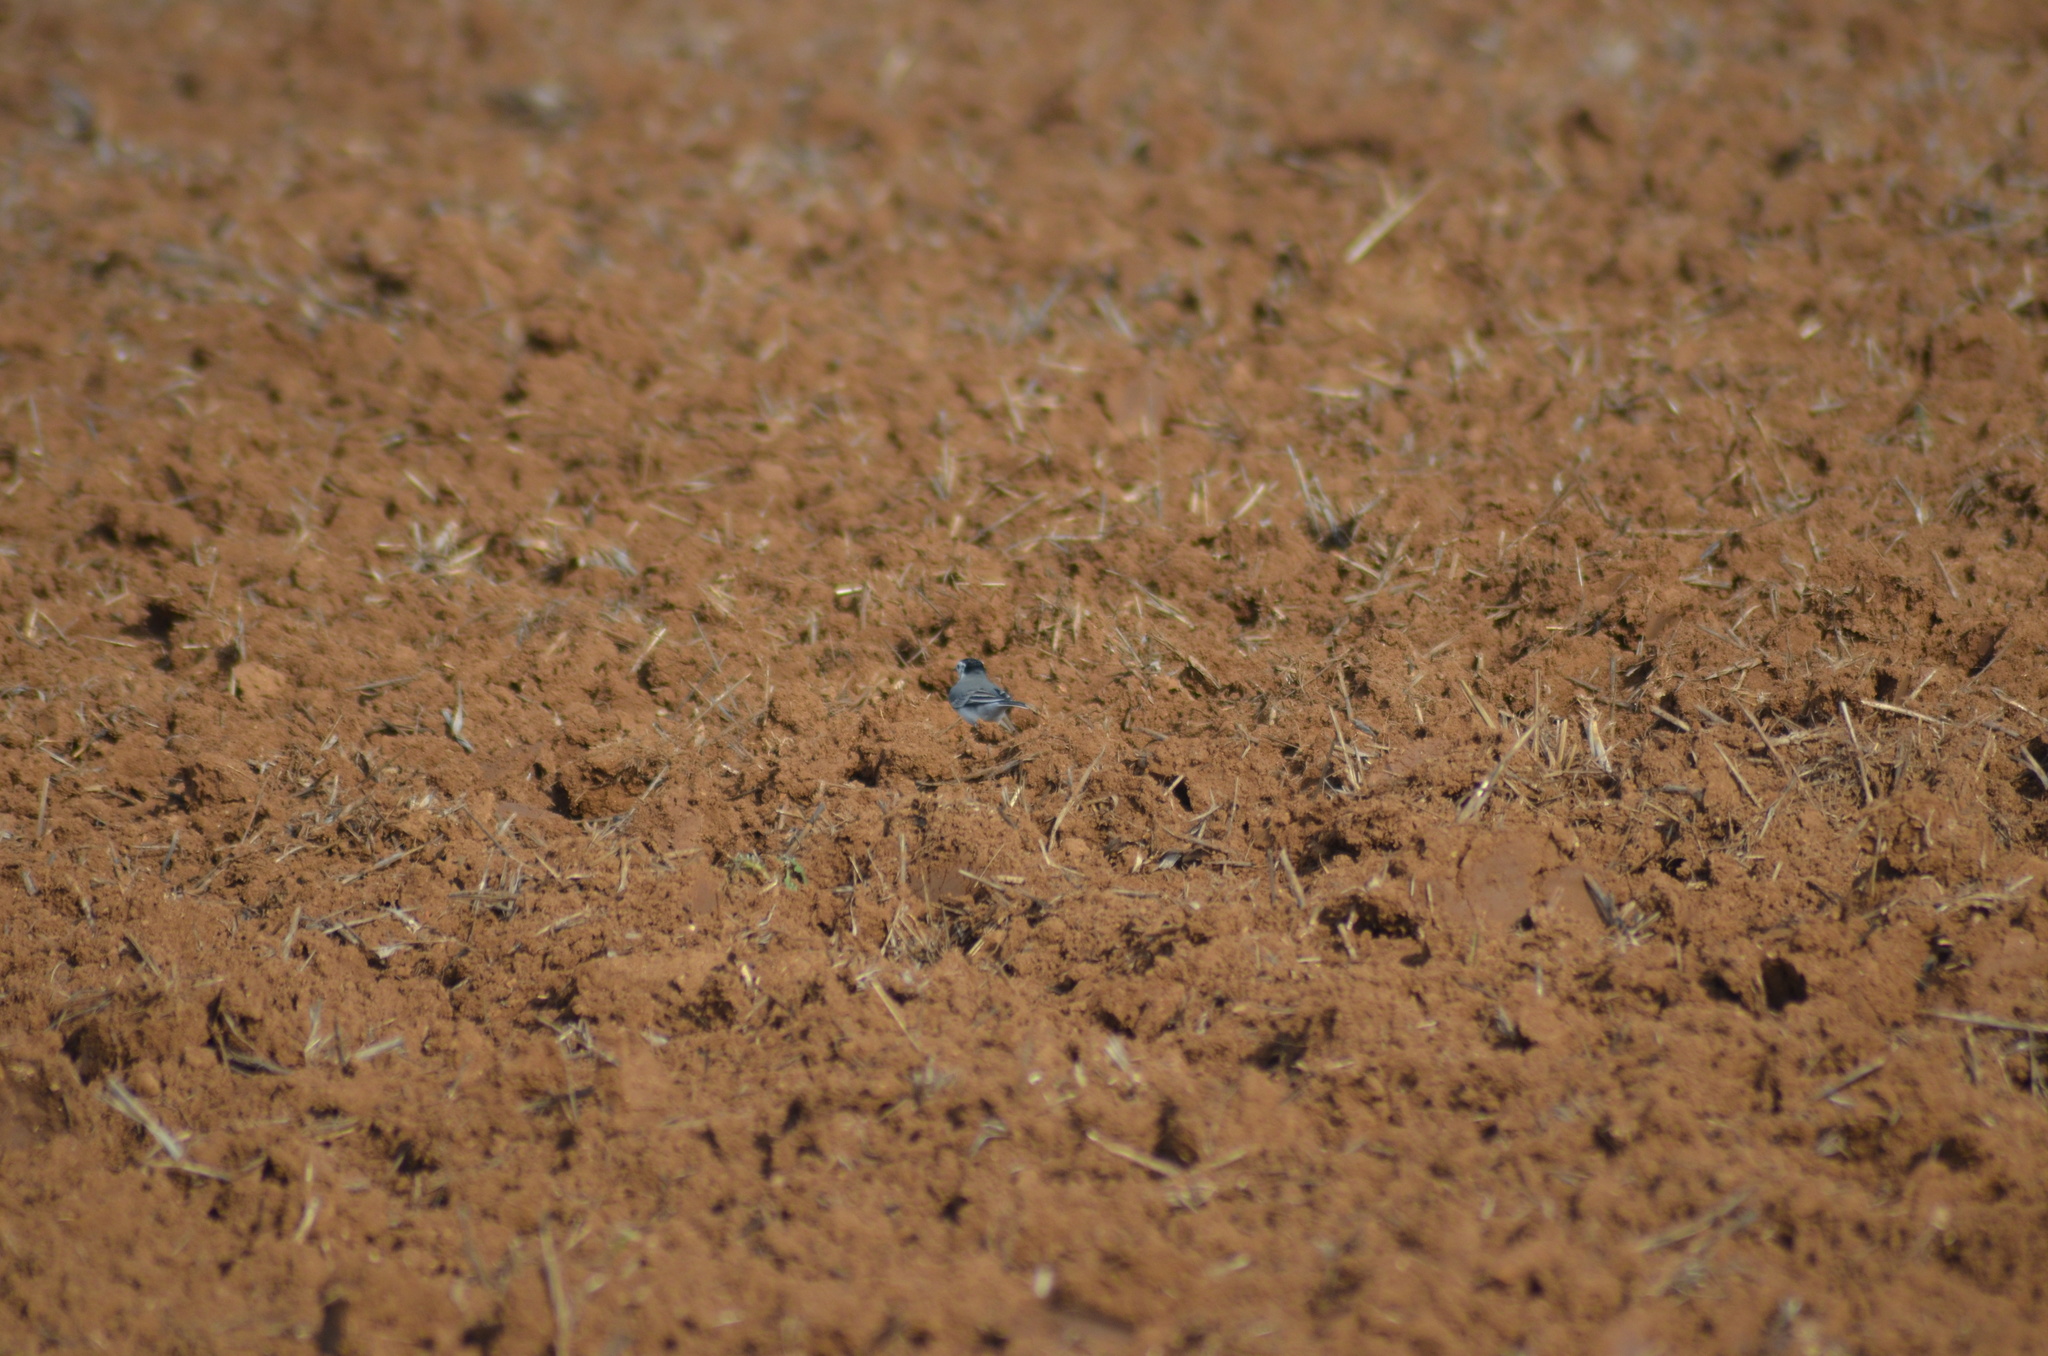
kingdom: Animalia
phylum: Chordata
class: Aves
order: Passeriformes
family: Motacillidae
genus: Motacilla
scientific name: Motacilla alba
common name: White wagtail
